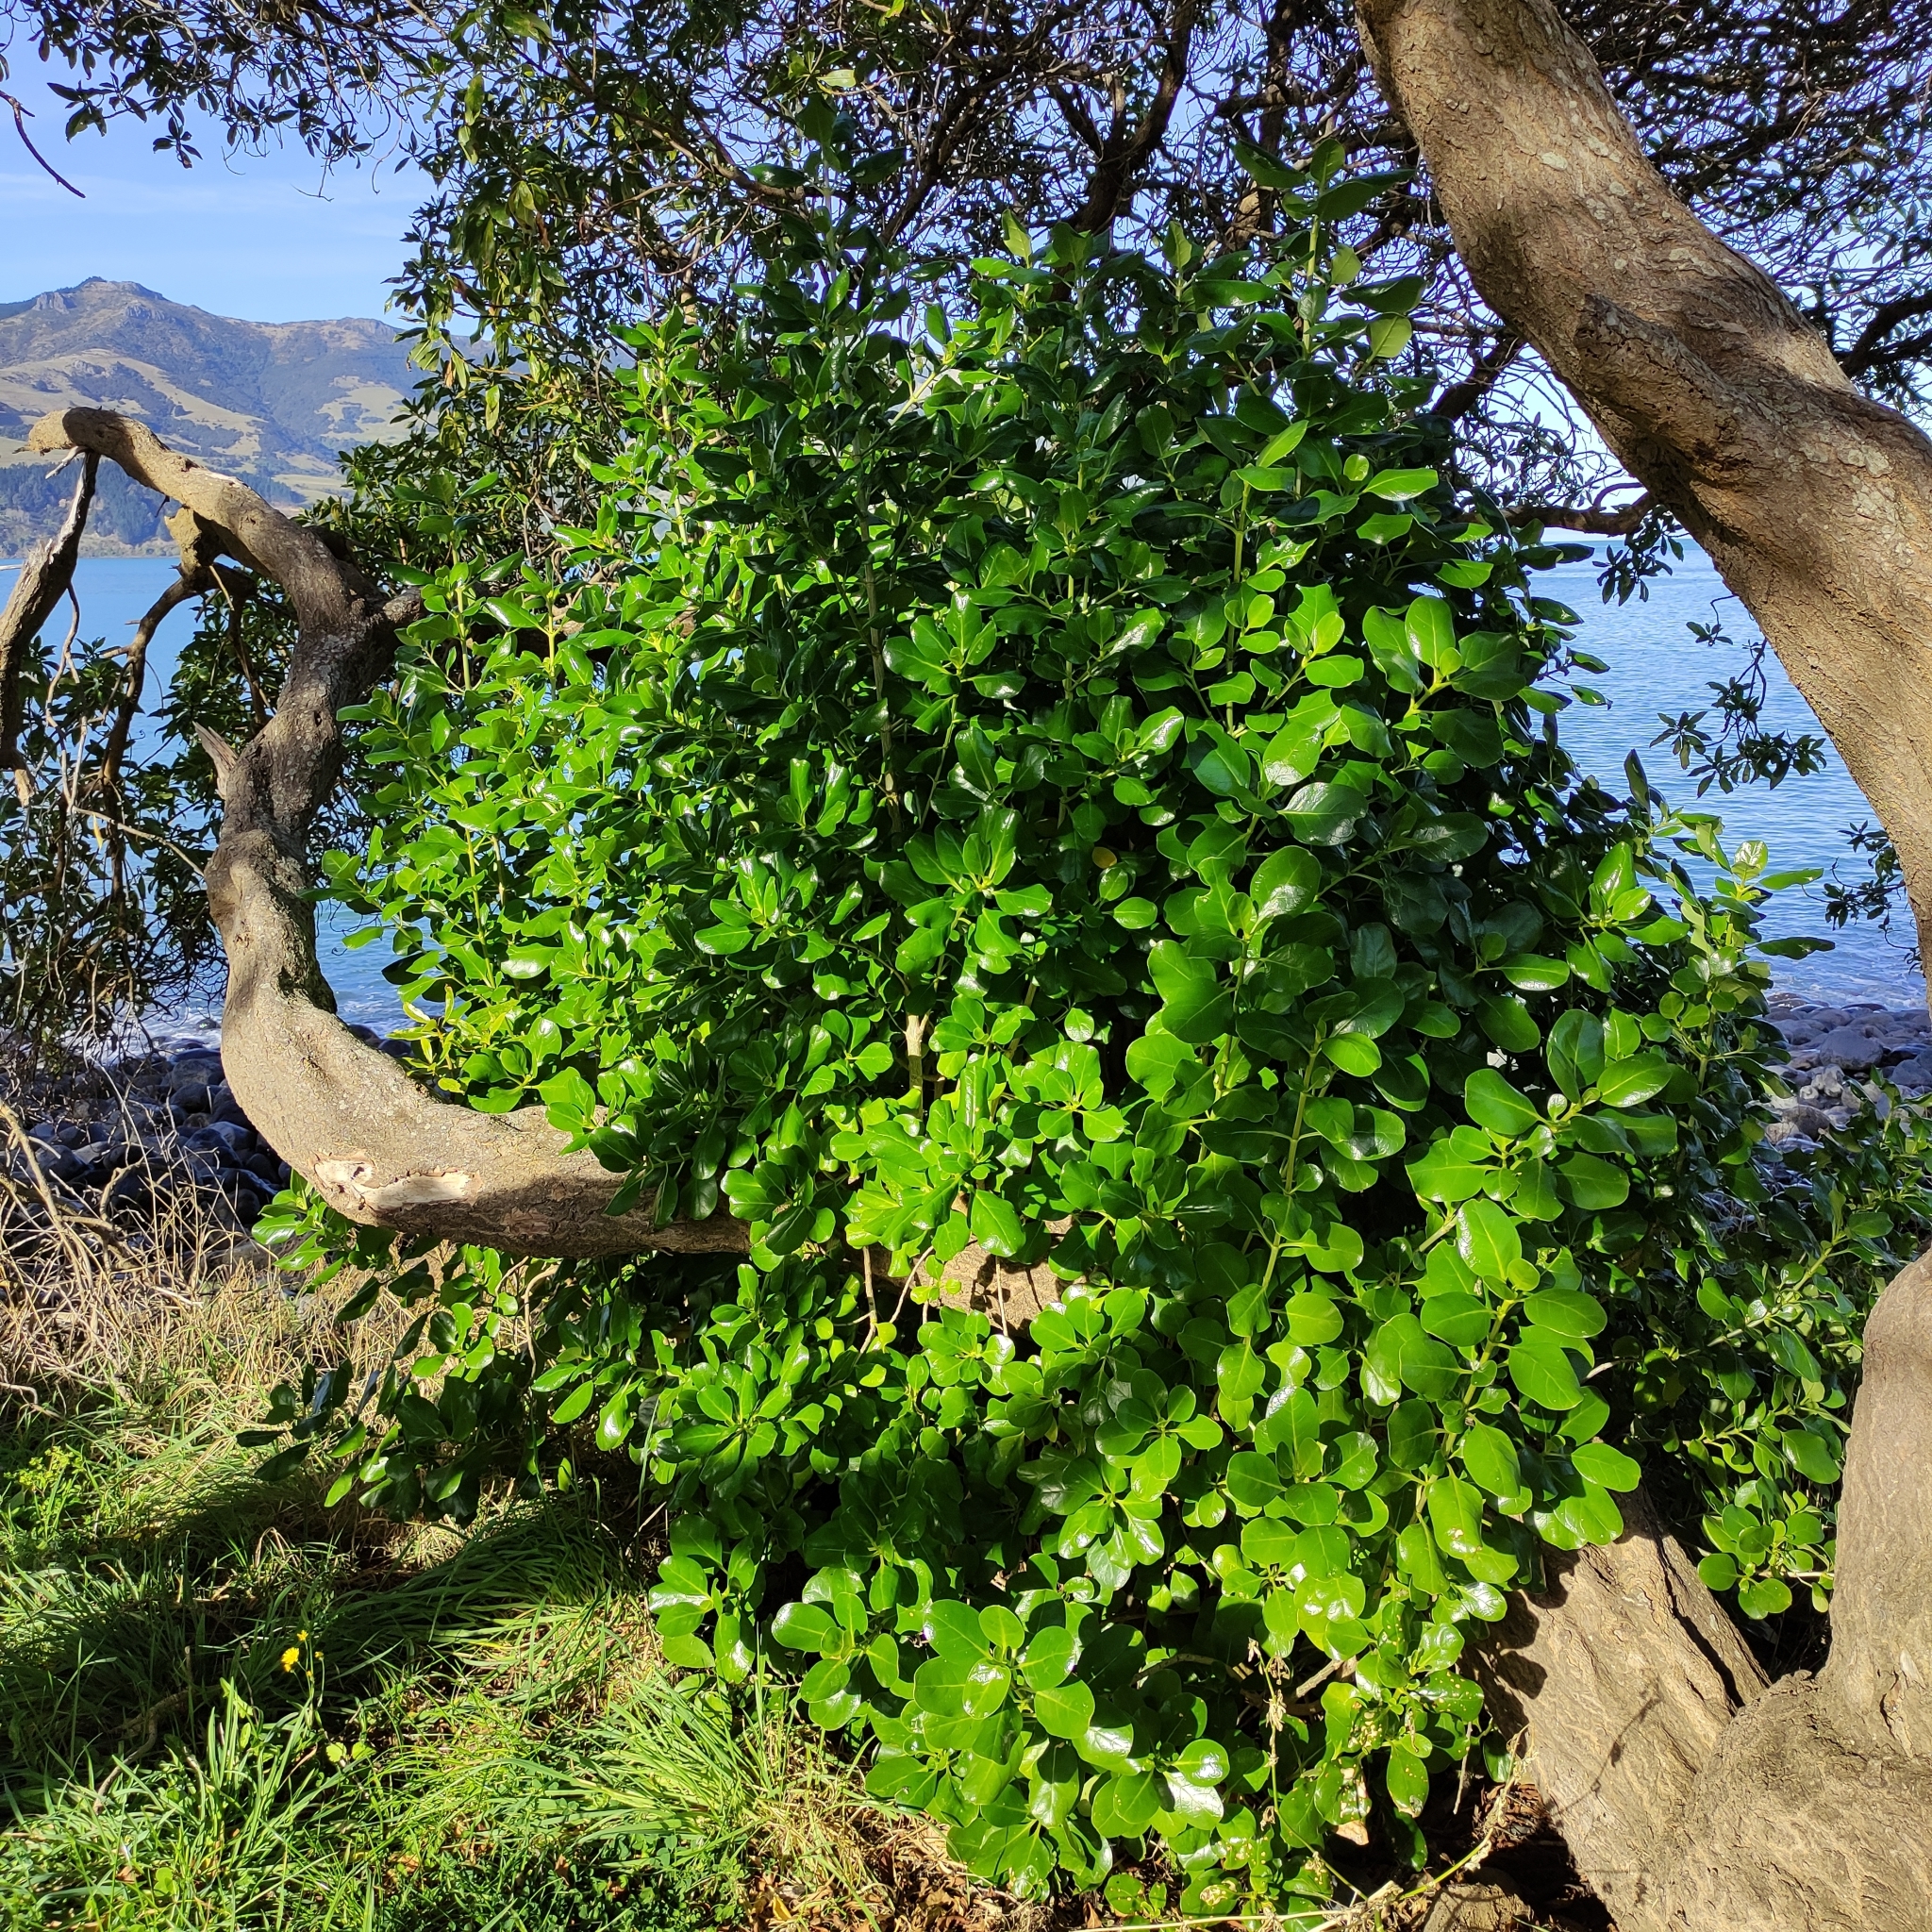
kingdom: Plantae
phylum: Tracheophyta
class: Magnoliopsida
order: Gentianales
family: Rubiaceae
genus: Coprosma
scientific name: Coprosma repens
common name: Tree bedstraw
